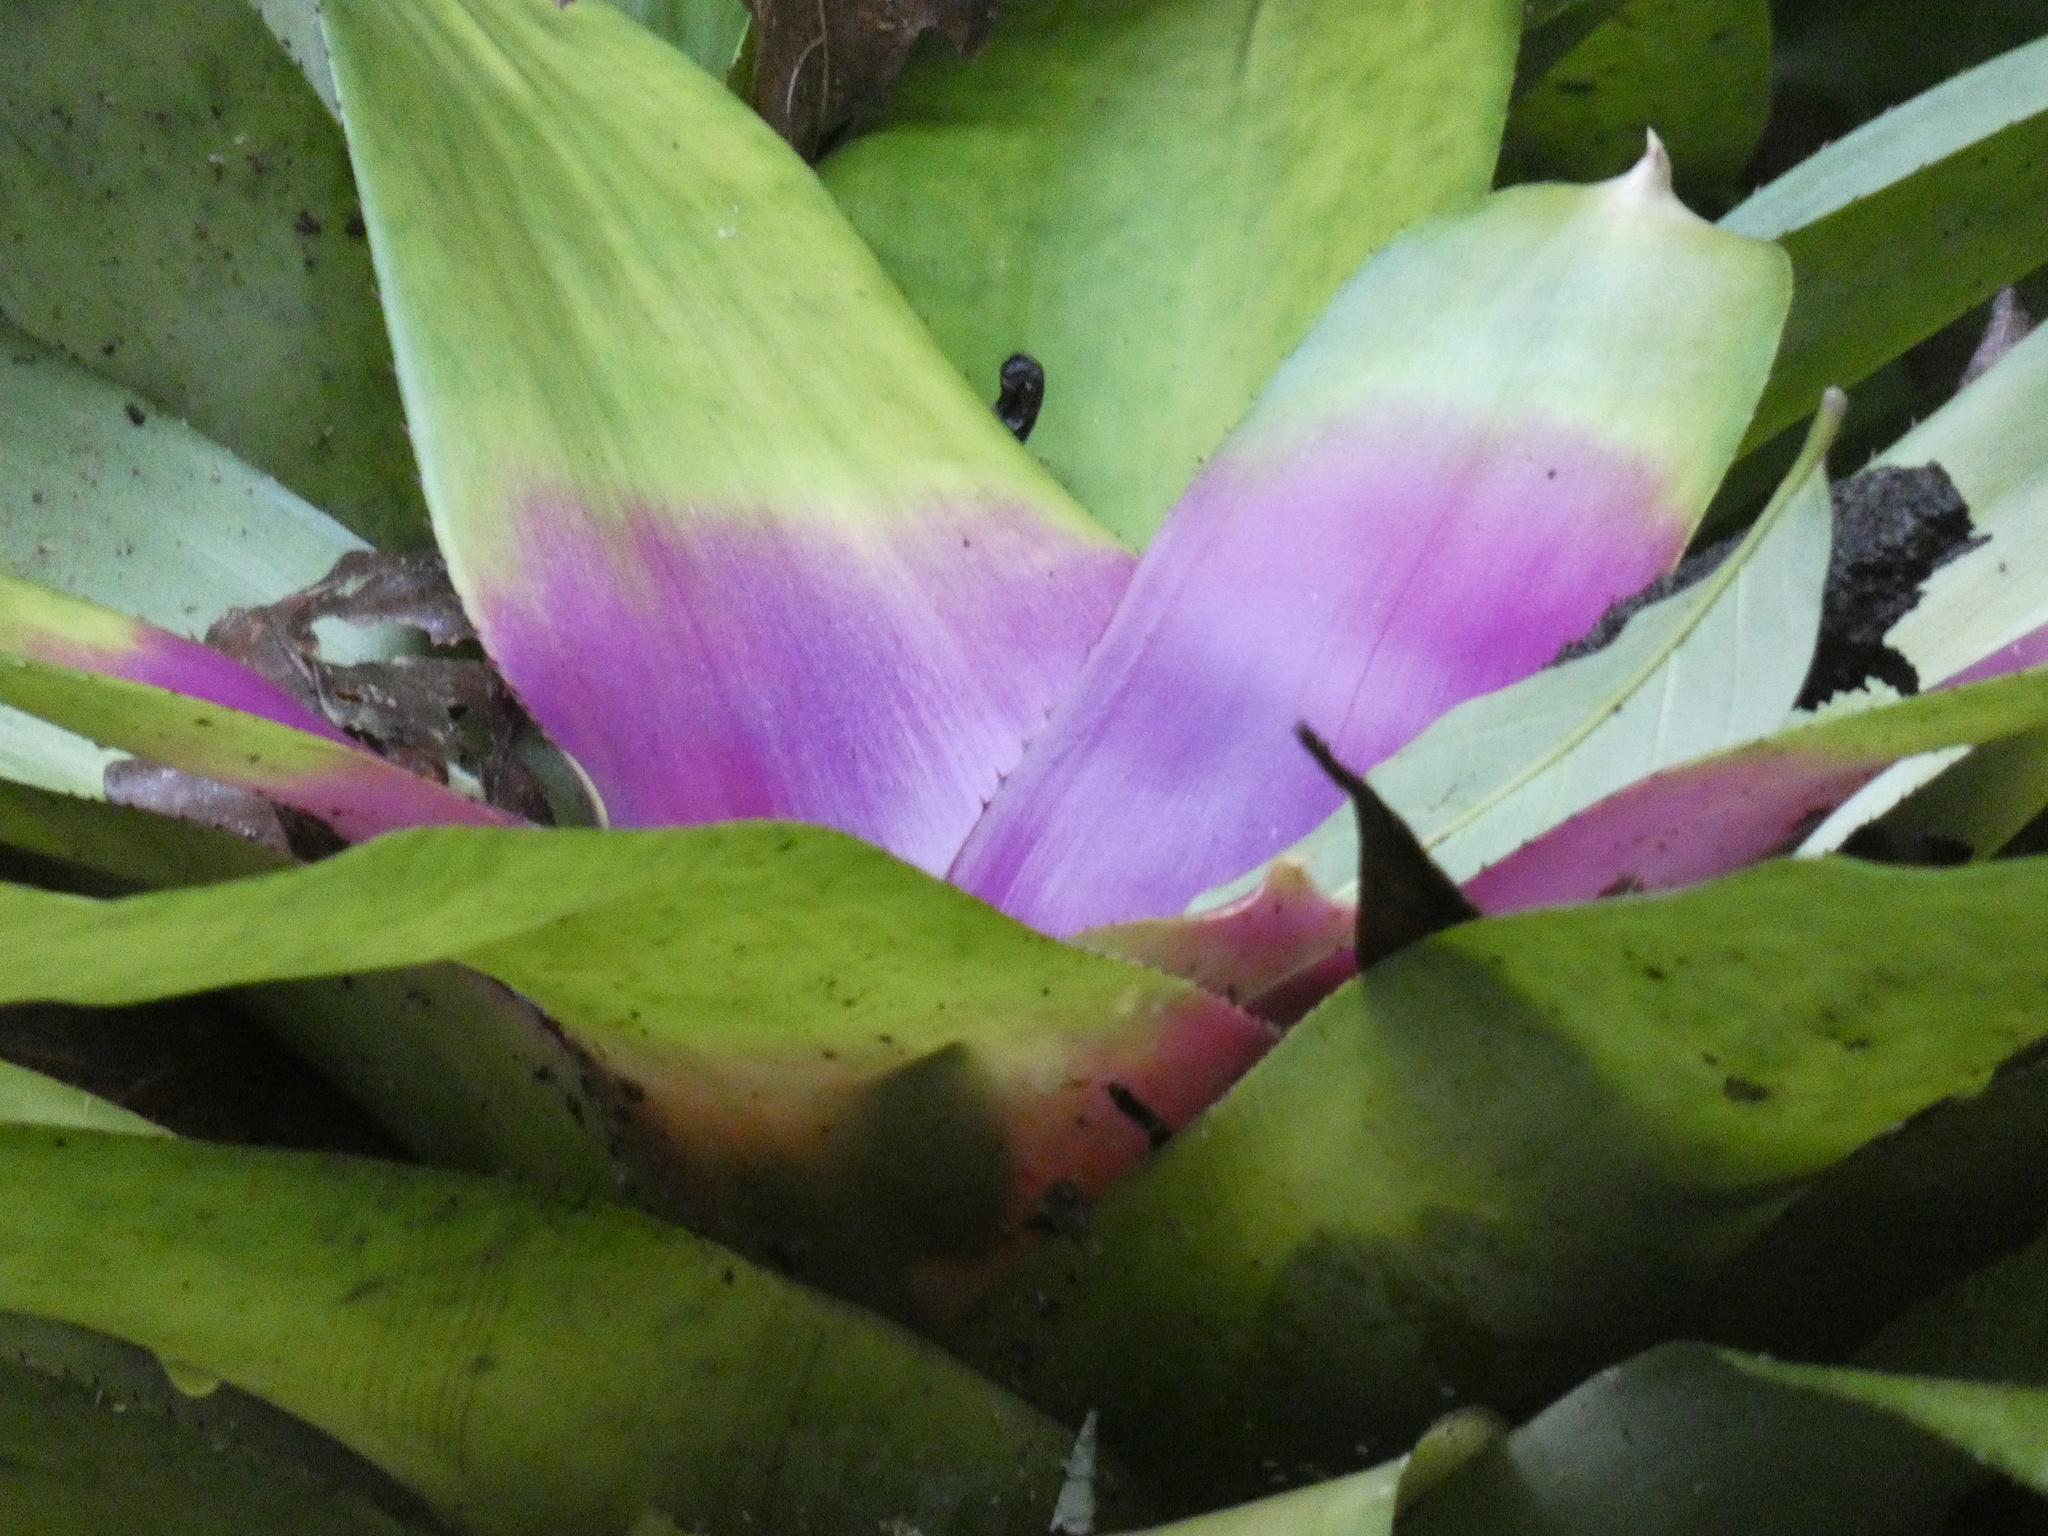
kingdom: Plantae
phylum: Tracheophyta
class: Liliopsida
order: Poales
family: Bromeliaceae
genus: Neoregelia
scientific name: Neoregelia concentrica
